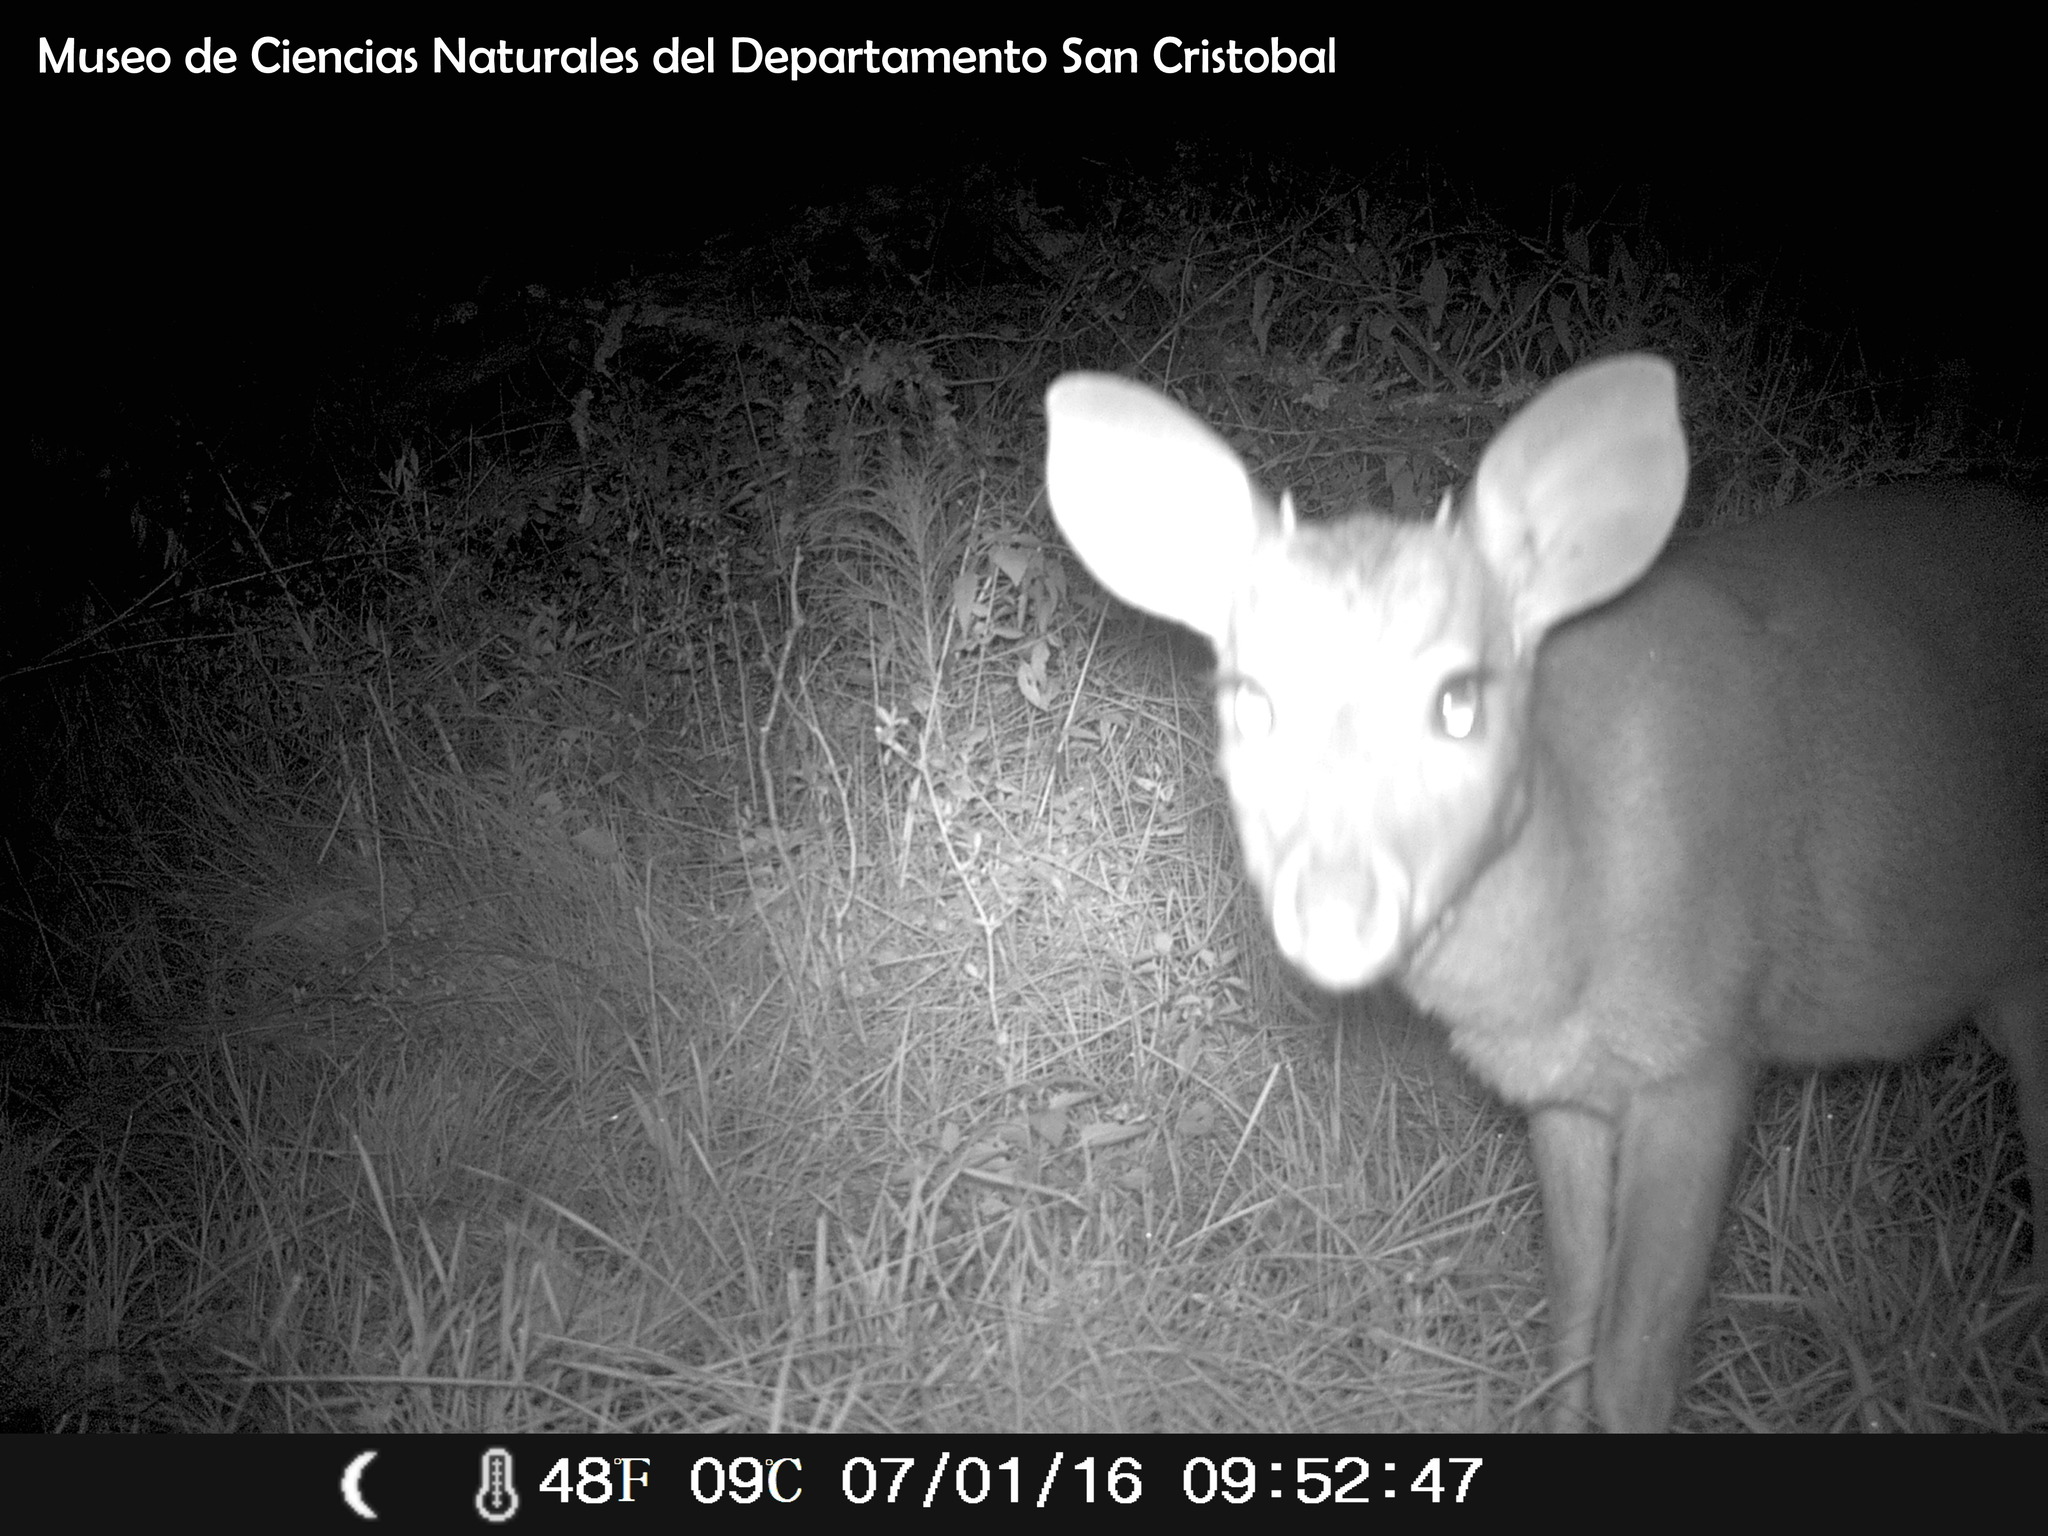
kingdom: Animalia
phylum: Chordata
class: Mammalia
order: Artiodactyla
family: Cervidae
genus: Mazama
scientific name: Mazama gouazoubira
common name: Gray brocket
